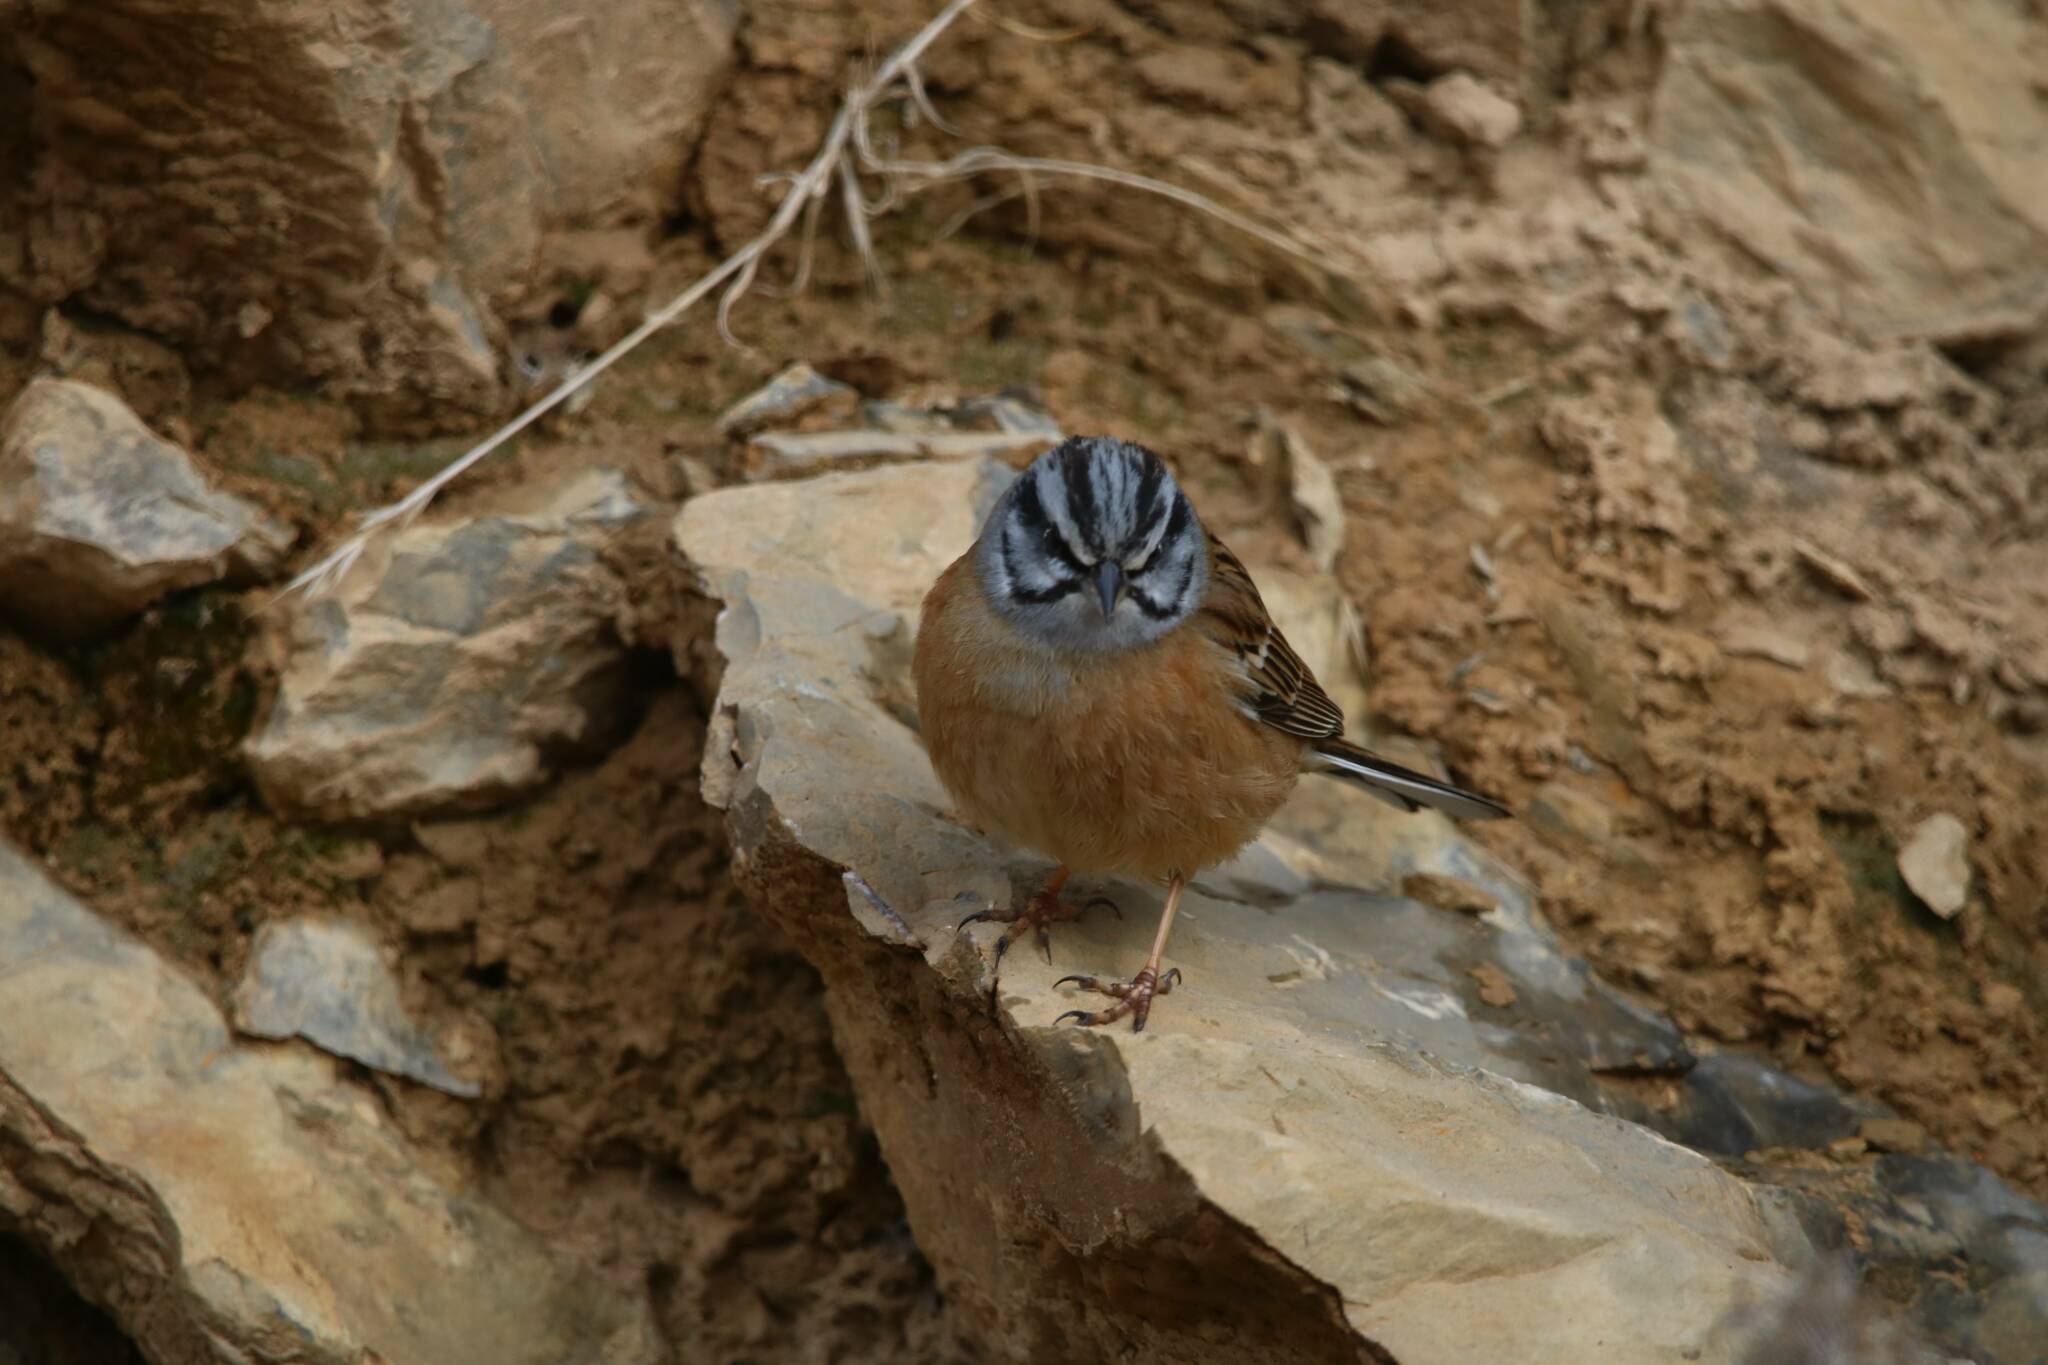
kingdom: Animalia
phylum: Chordata
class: Aves
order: Passeriformes
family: Emberizidae
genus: Emberiza
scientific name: Emberiza cia
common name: Rock bunting
